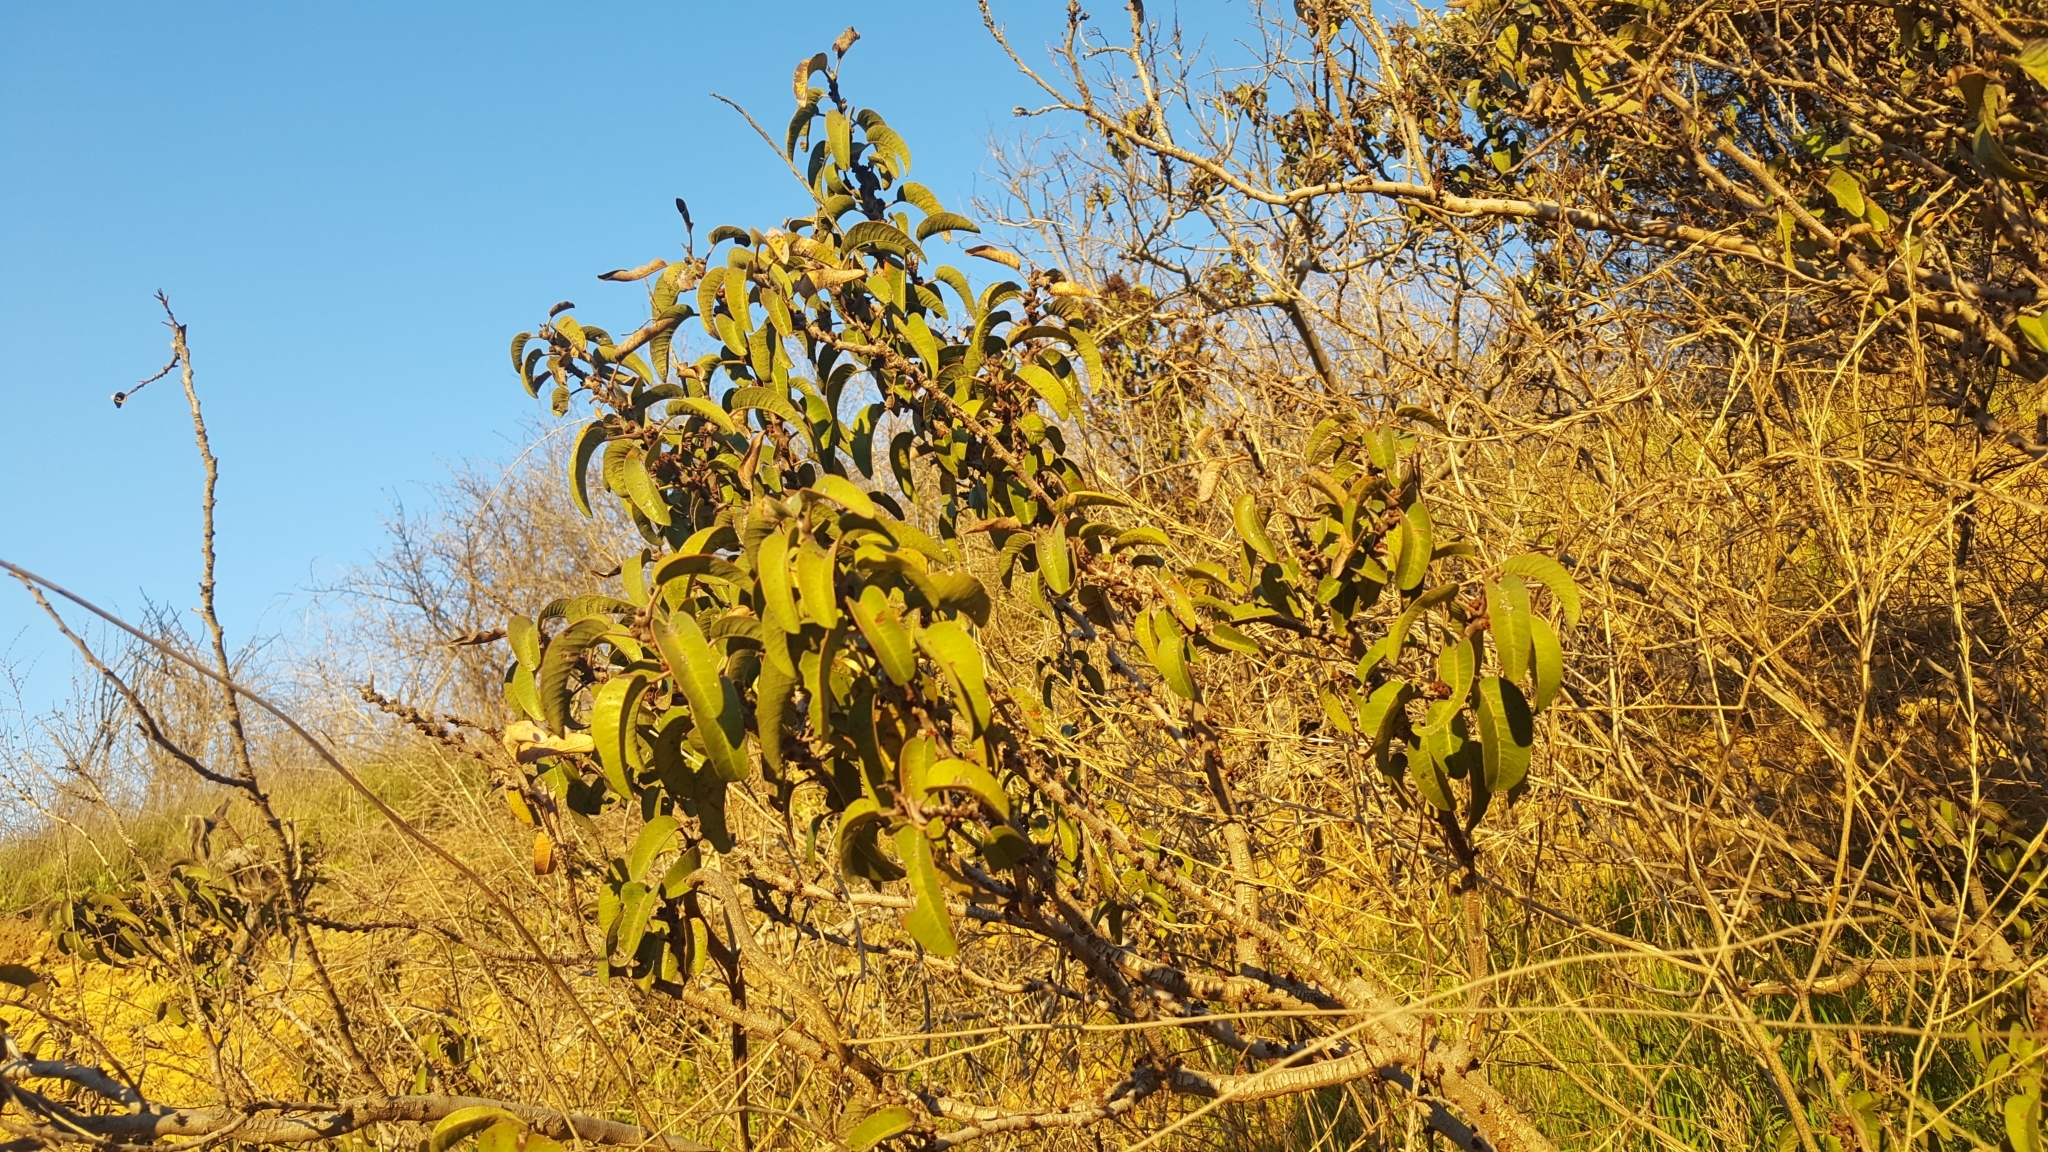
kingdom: Plantae
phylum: Tracheophyta
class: Magnoliopsida
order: Sapindales
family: Anacardiaceae
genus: Malosma
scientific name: Malosma laurina
